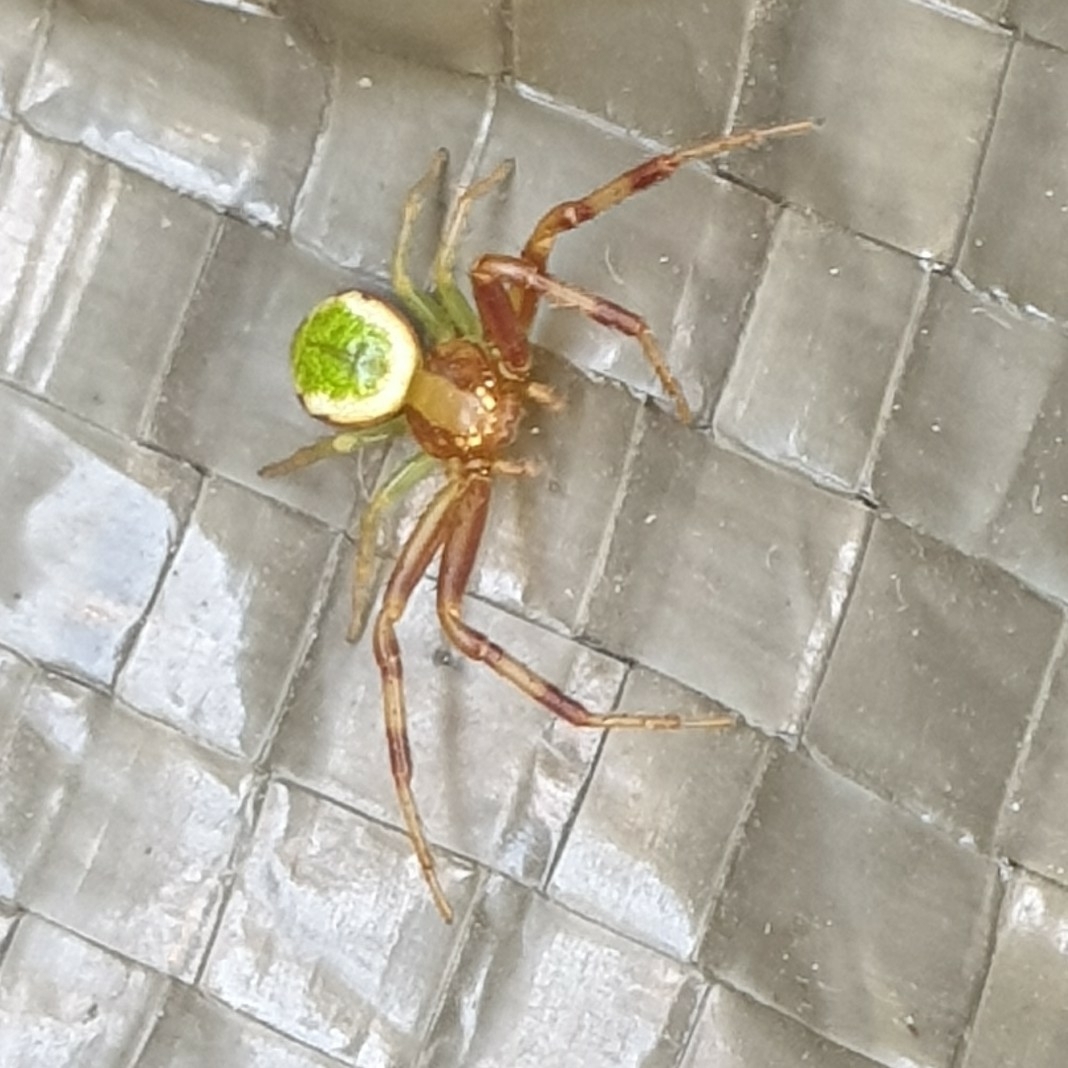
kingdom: Animalia
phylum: Arthropoda
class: Arachnida
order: Araneae
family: Thomisidae
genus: Ebrechtella
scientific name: Ebrechtella tricuspidata
